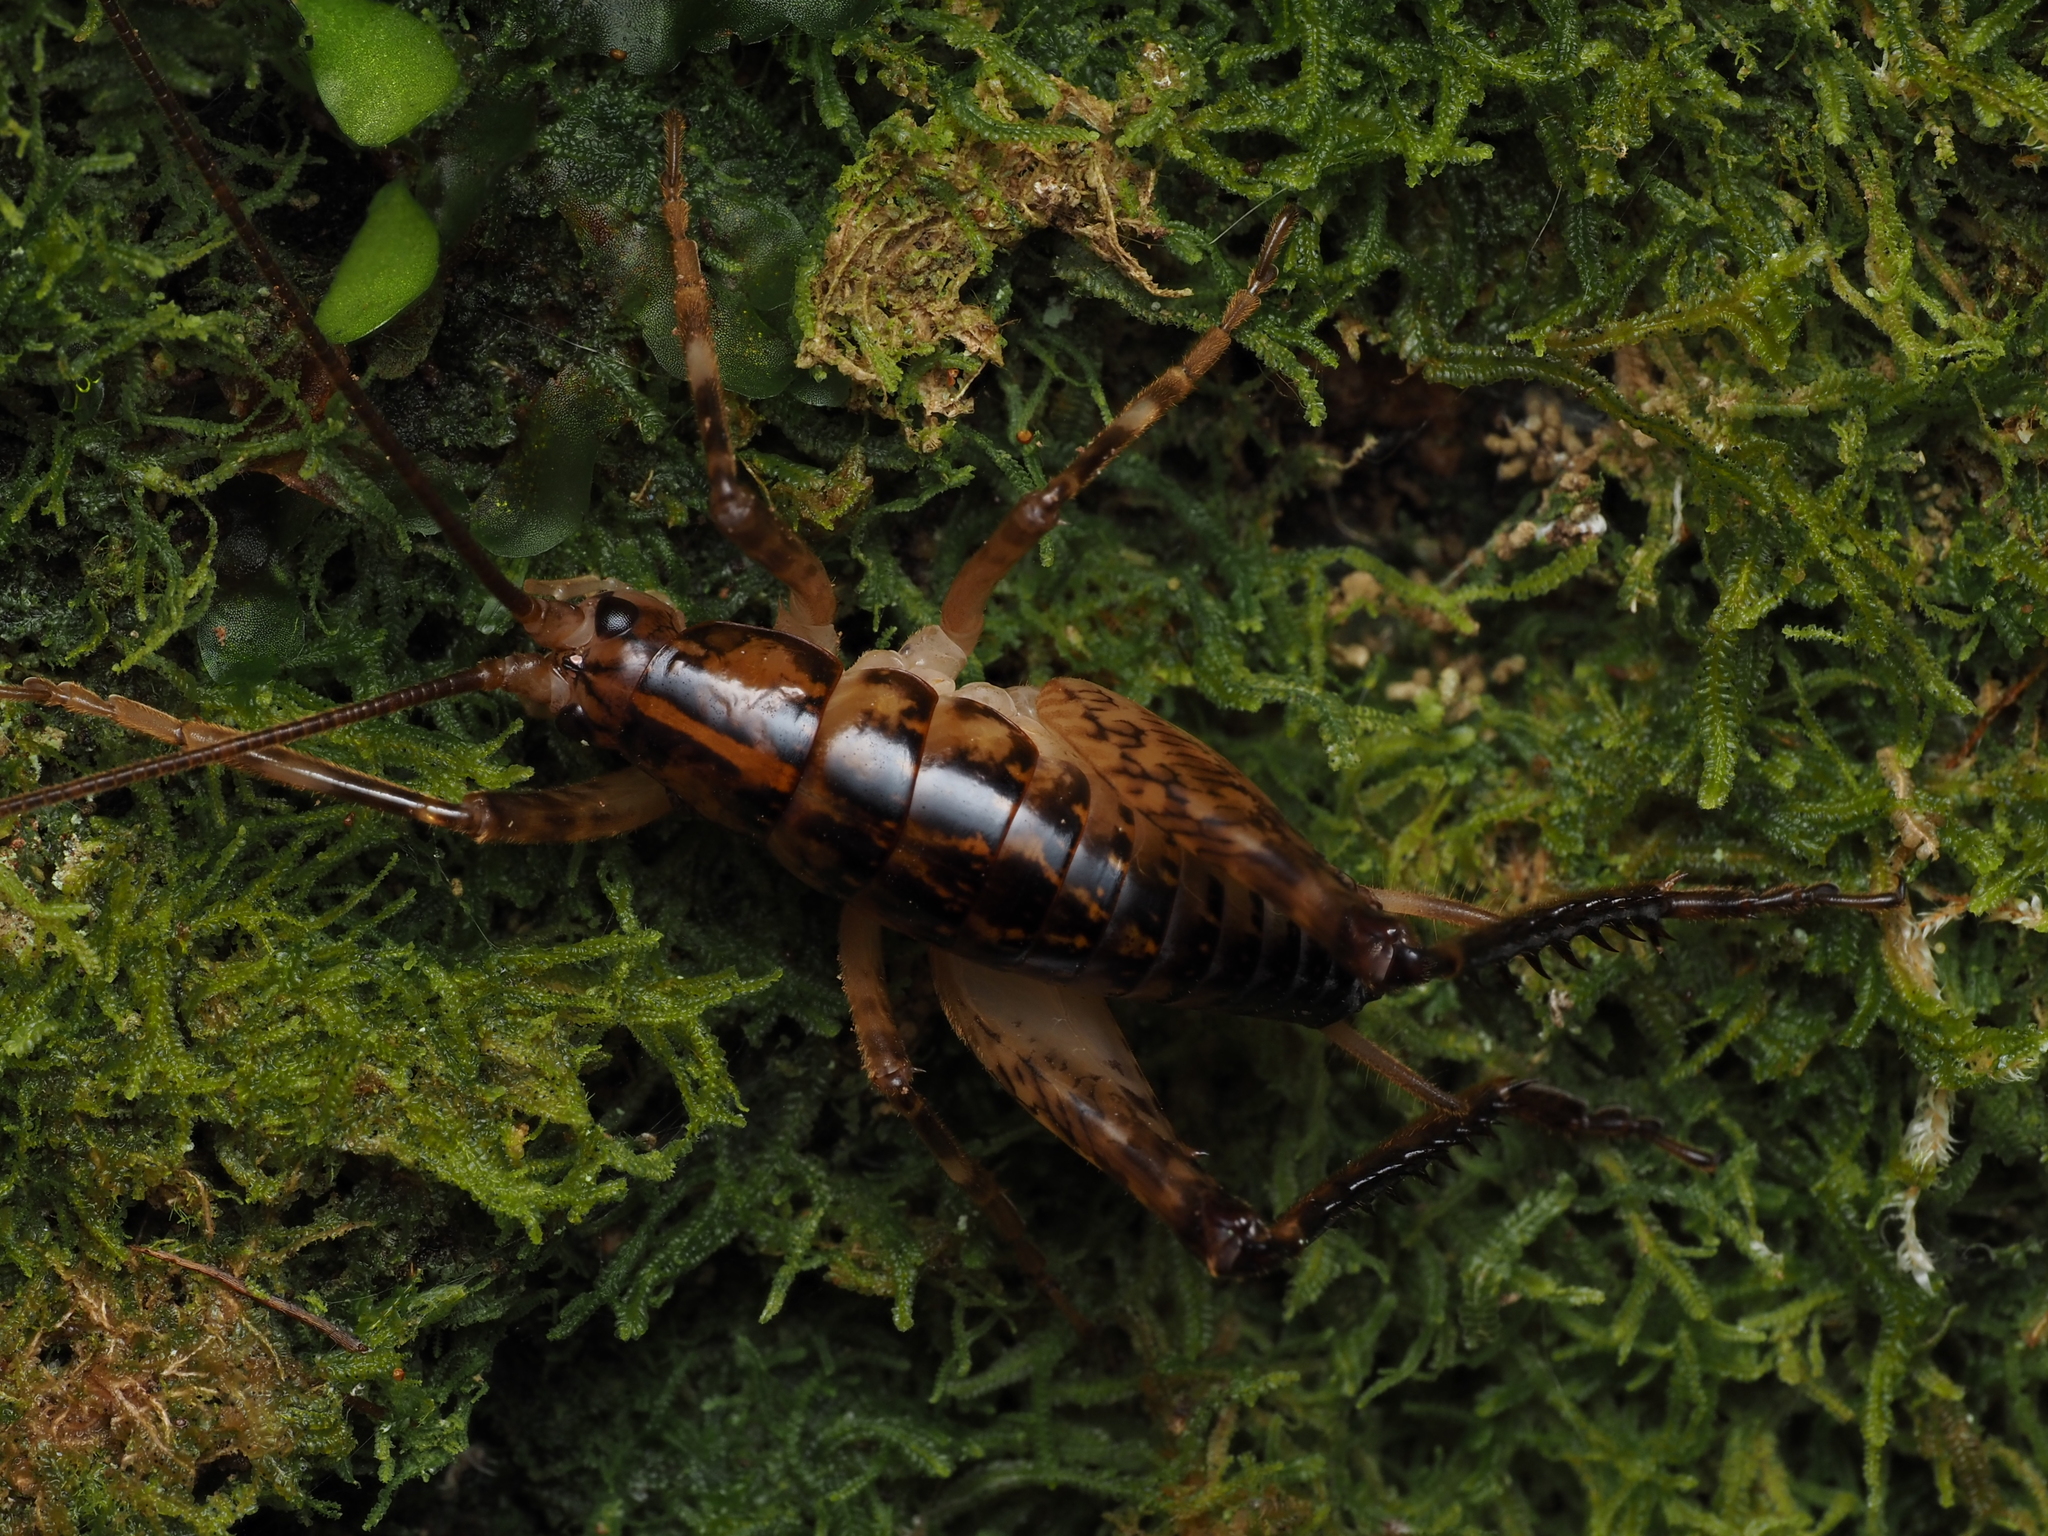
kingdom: Animalia
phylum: Arthropoda
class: Insecta
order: Orthoptera
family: Rhaphidophoridae
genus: Talitropsis
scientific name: Talitropsis sedilloti
